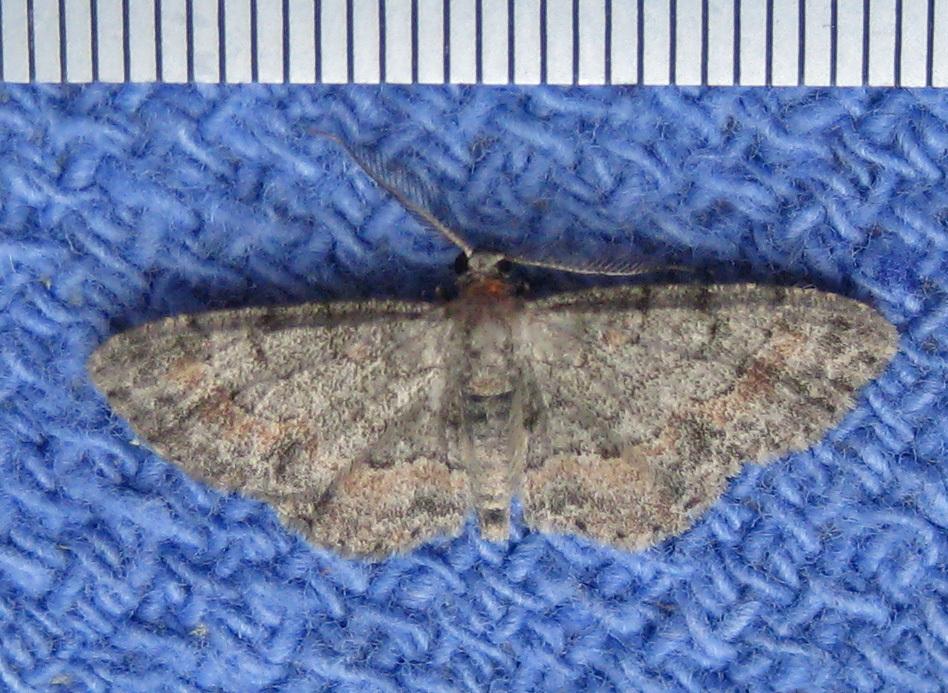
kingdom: Animalia
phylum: Arthropoda
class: Insecta
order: Lepidoptera
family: Geometridae
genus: Glenoides
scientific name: Glenoides texanaria
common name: Texas gray
